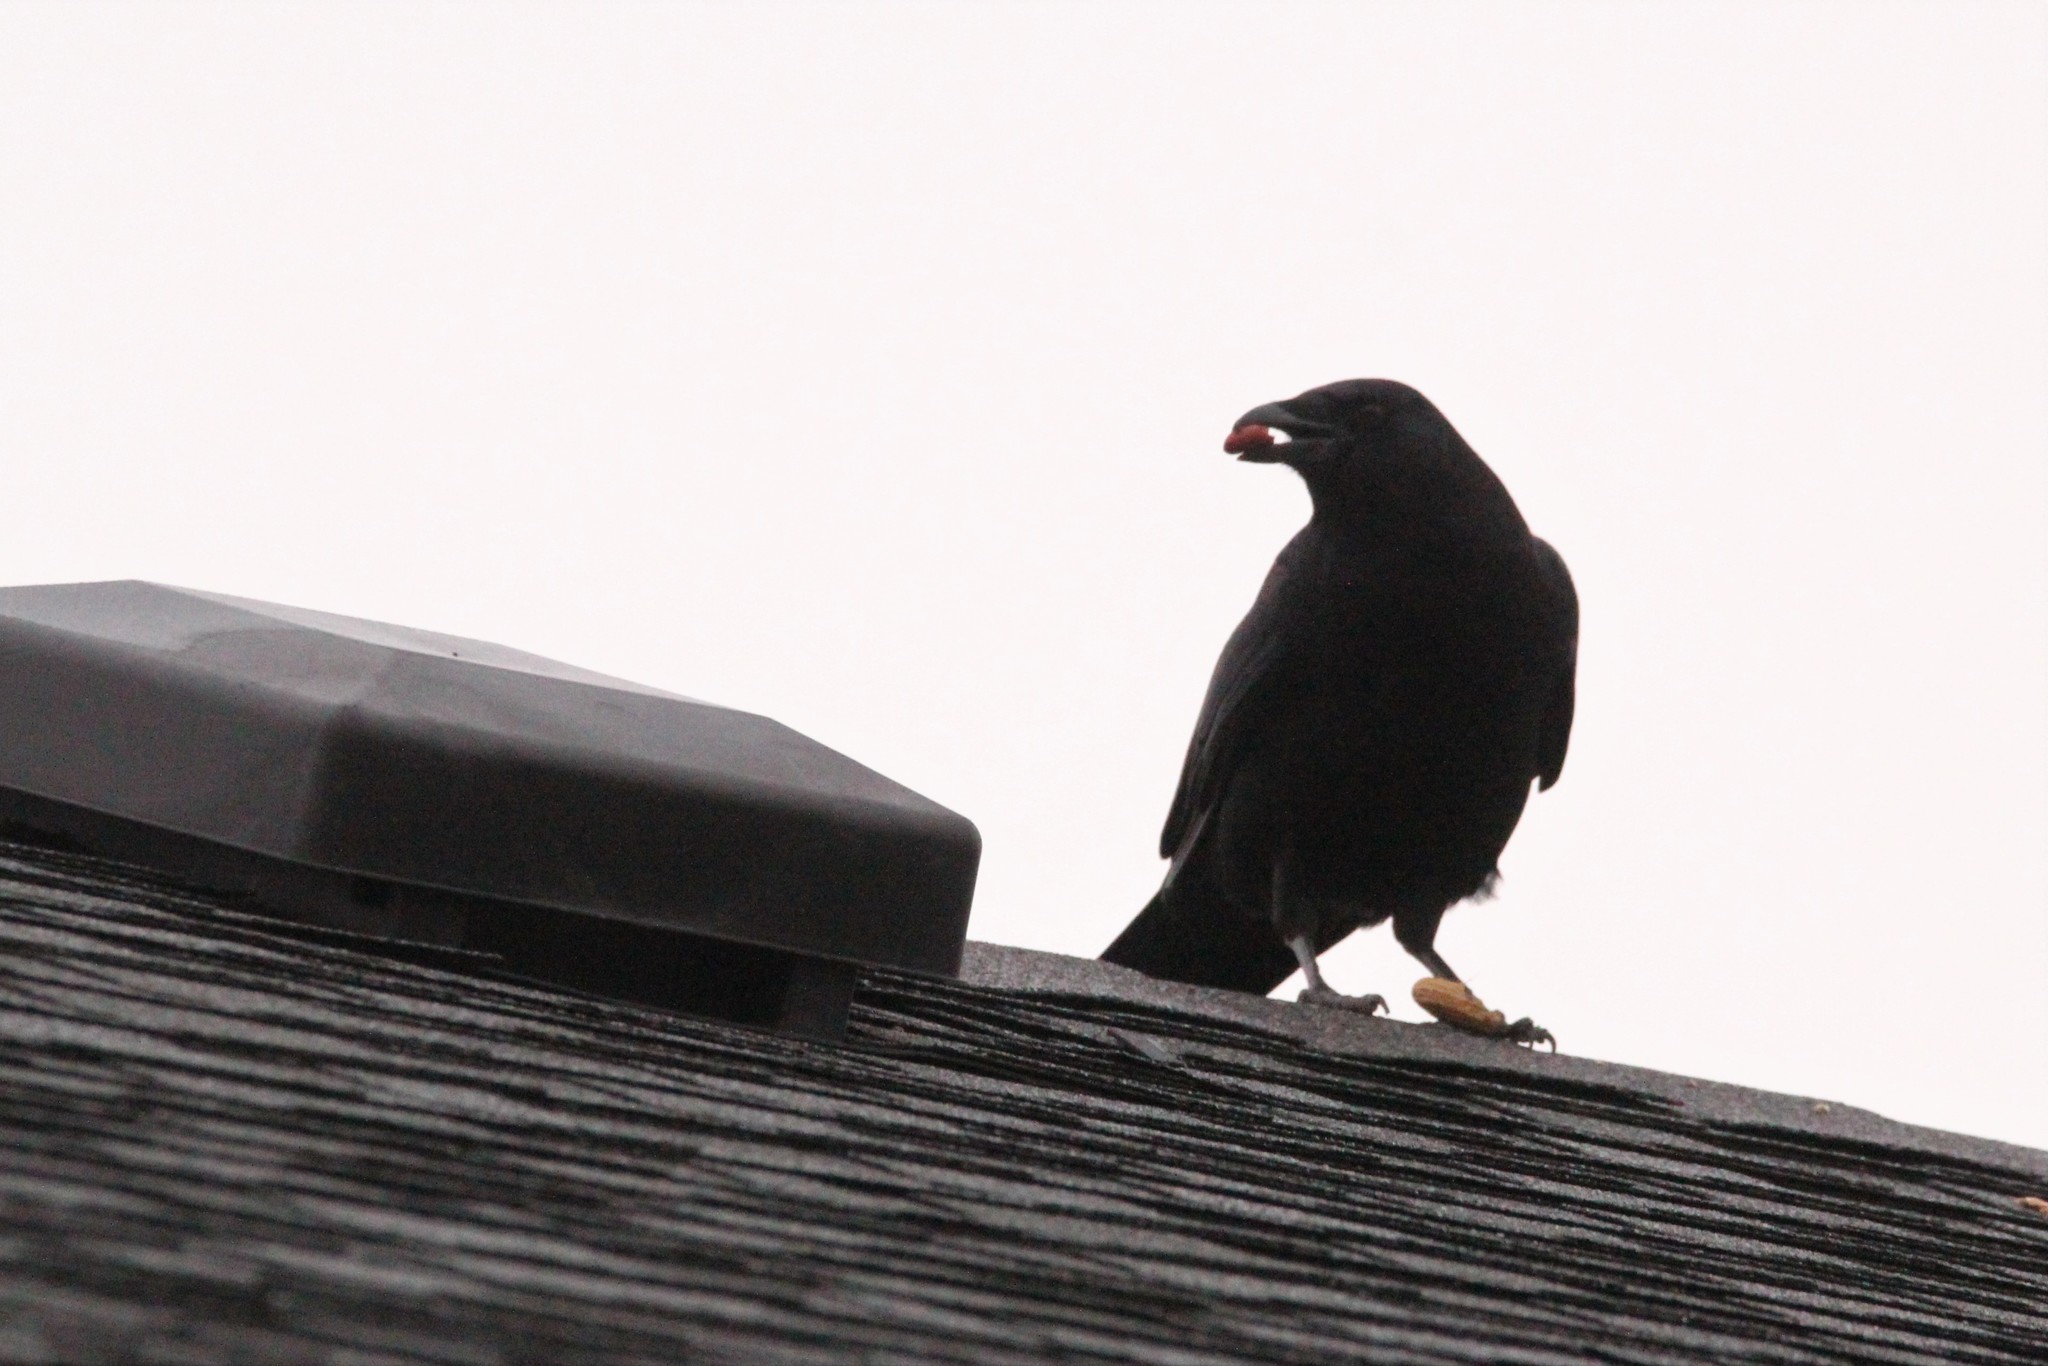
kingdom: Animalia
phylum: Chordata
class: Aves
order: Passeriformes
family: Corvidae
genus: Corvus
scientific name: Corvus brachyrhynchos
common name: American crow
